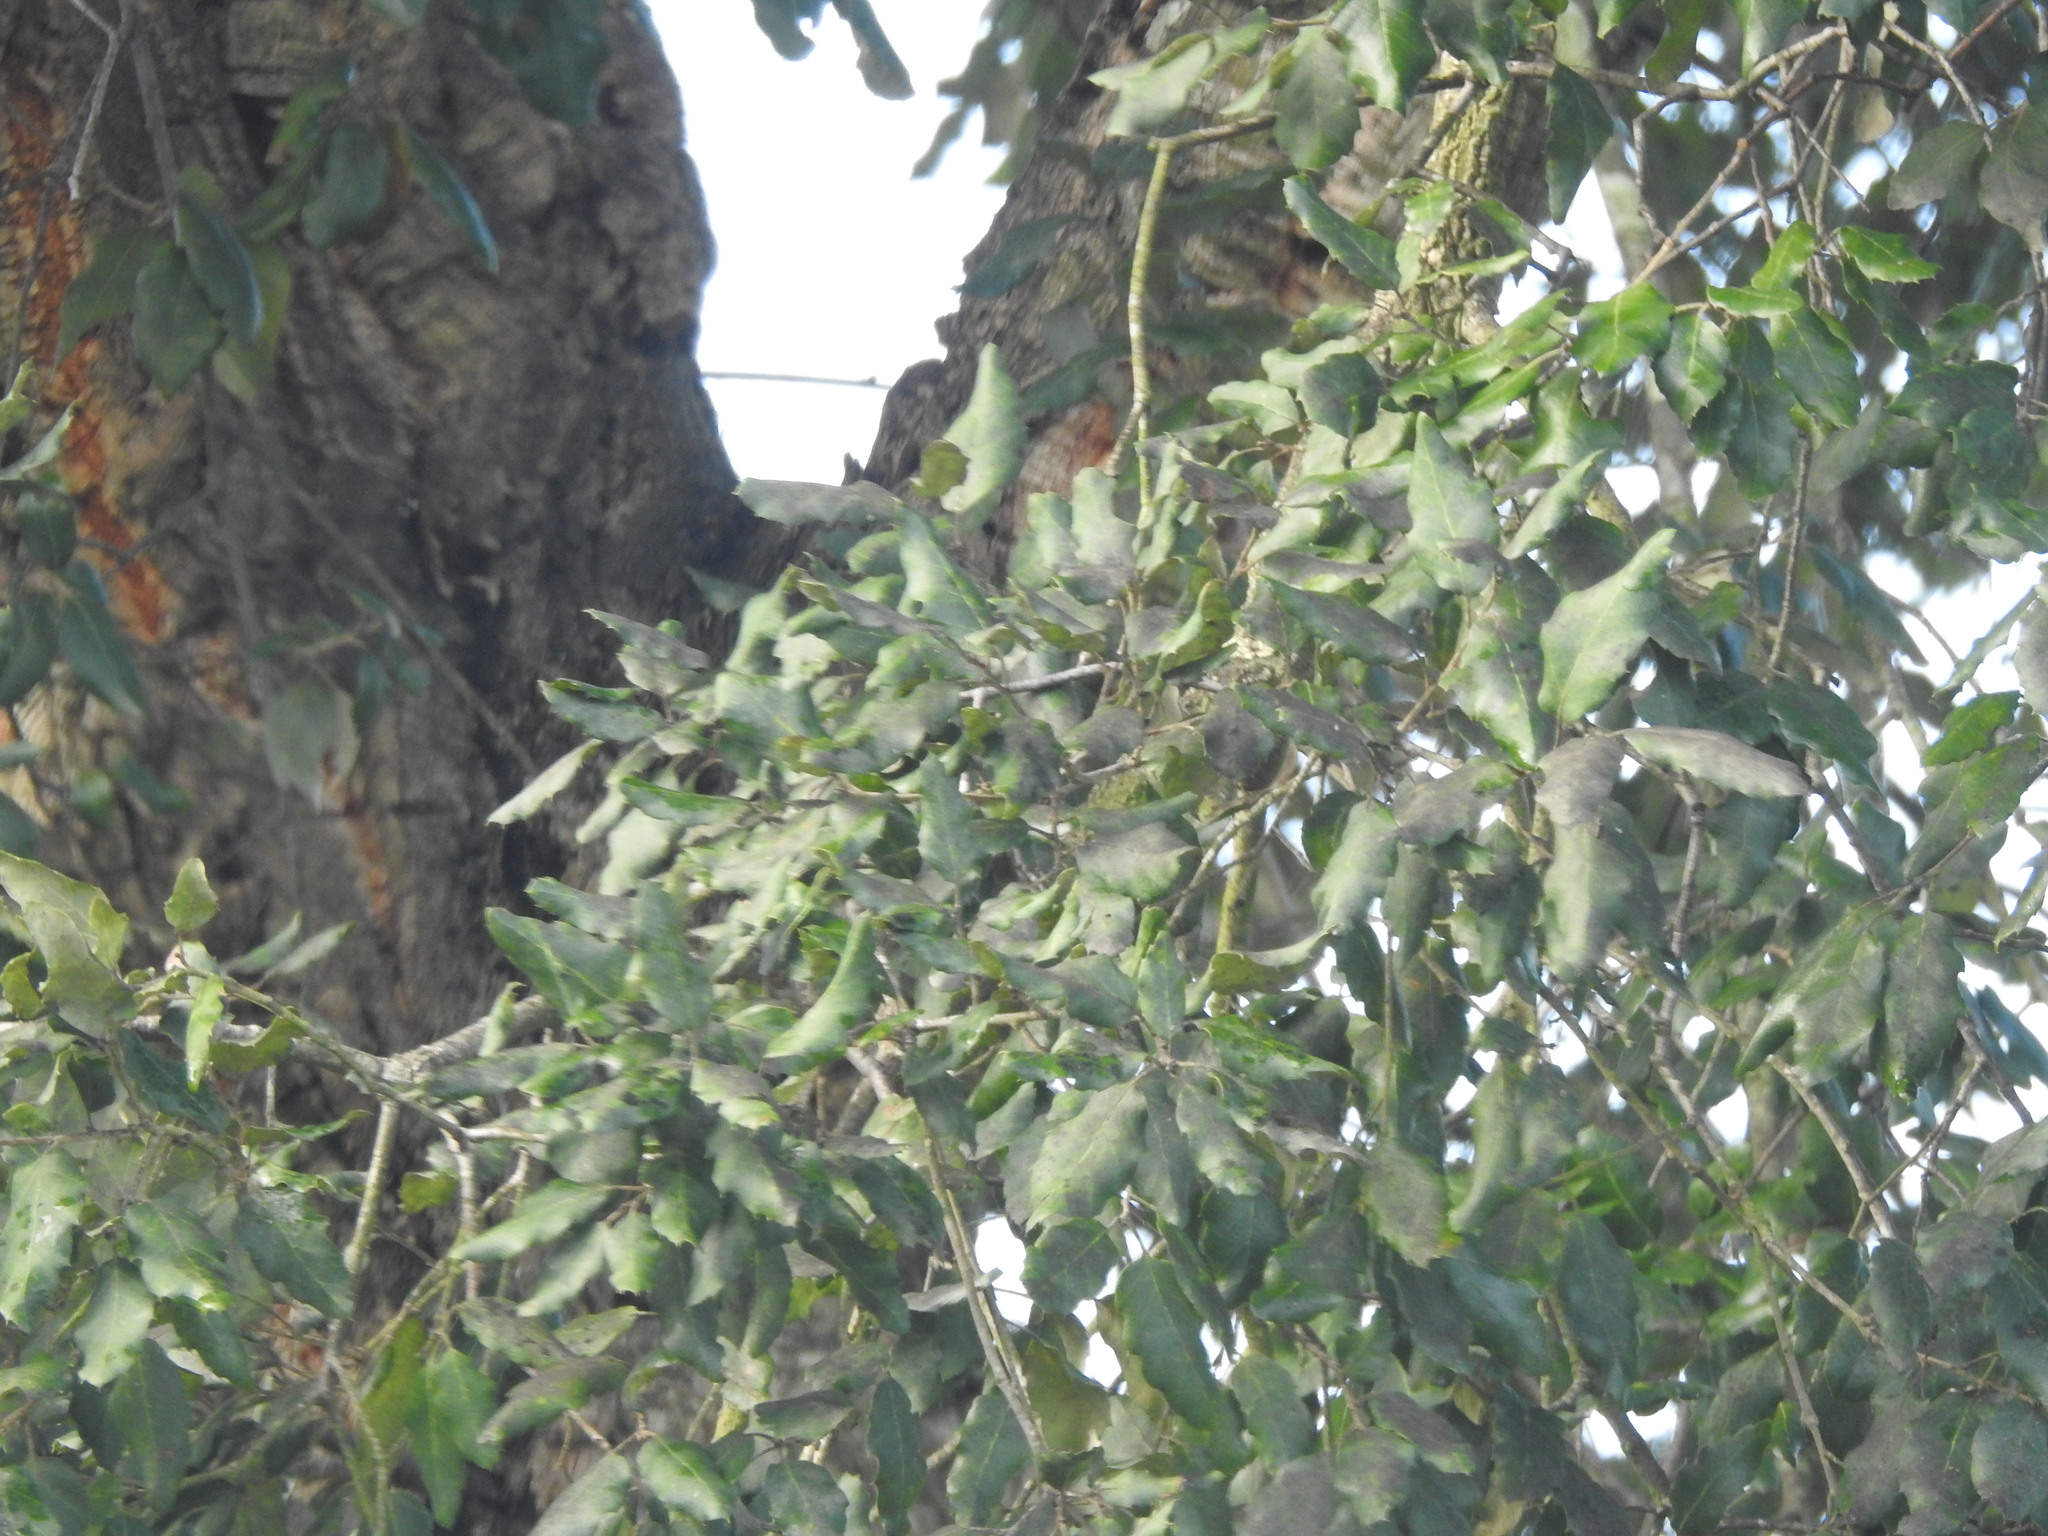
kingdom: Plantae
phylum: Tracheophyta
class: Magnoliopsida
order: Fagales
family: Fagaceae
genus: Quercus
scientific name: Quercus suber
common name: Cork oak
